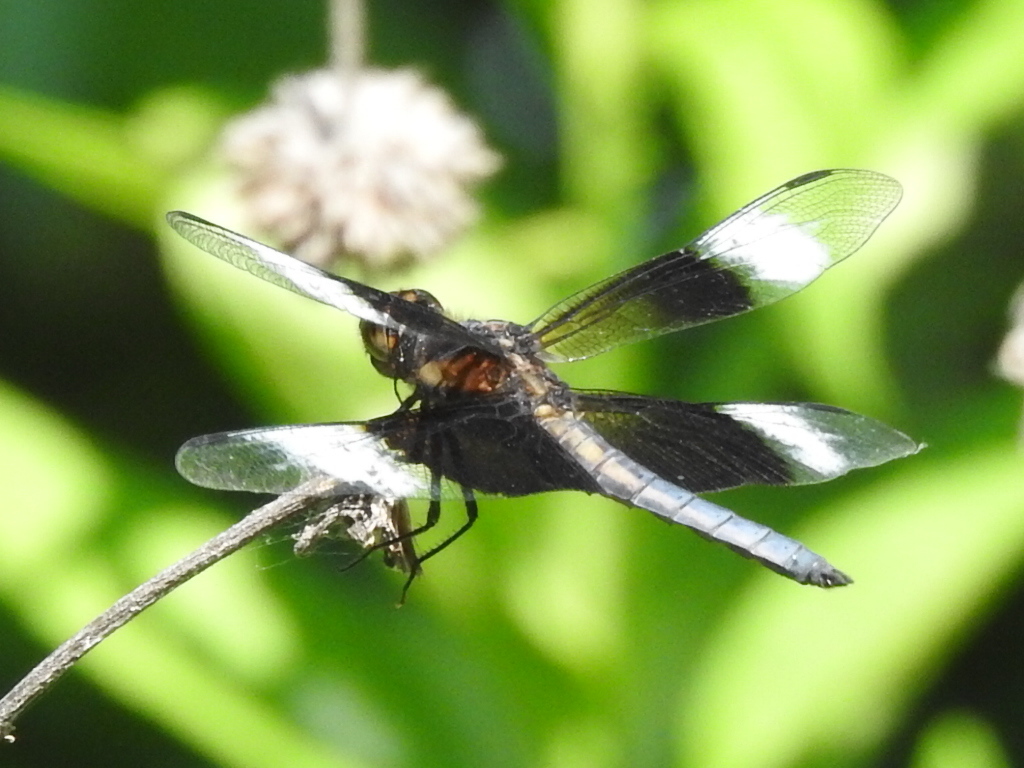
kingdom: Animalia
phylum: Arthropoda
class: Insecta
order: Odonata
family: Libellulidae
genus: Libellula
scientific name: Libellula luctuosa
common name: Widow skimmer
